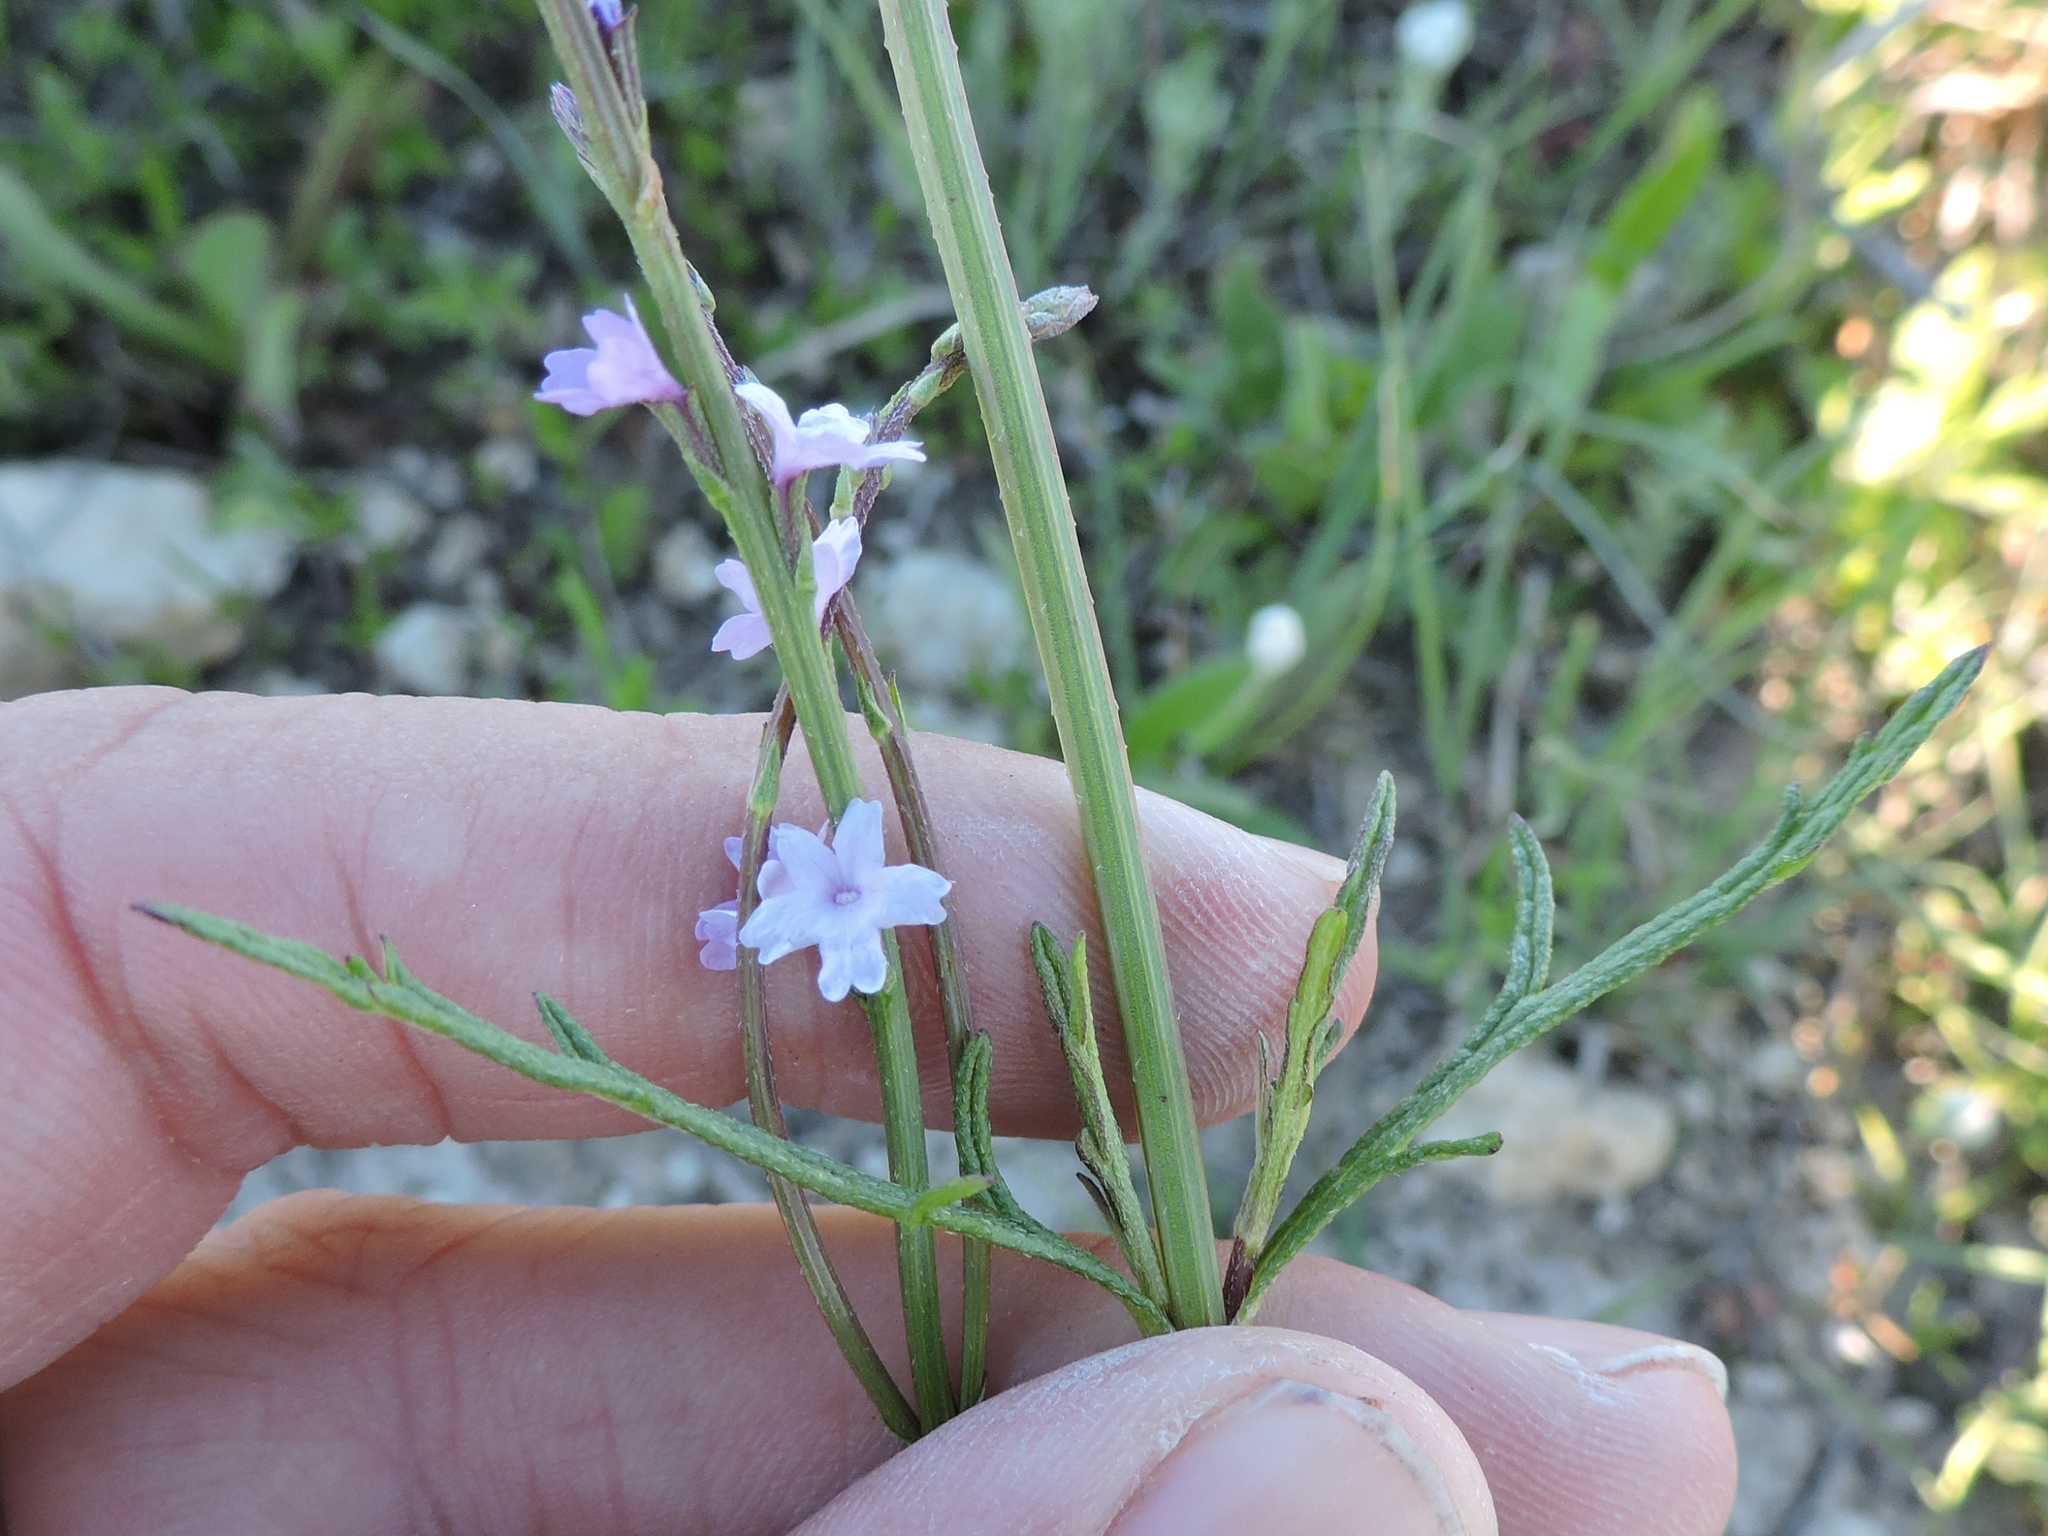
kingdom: Plantae
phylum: Tracheophyta
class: Magnoliopsida
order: Lamiales
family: Verbenaceae
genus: Verbena
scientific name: Verbena halei
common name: Texas vervain
